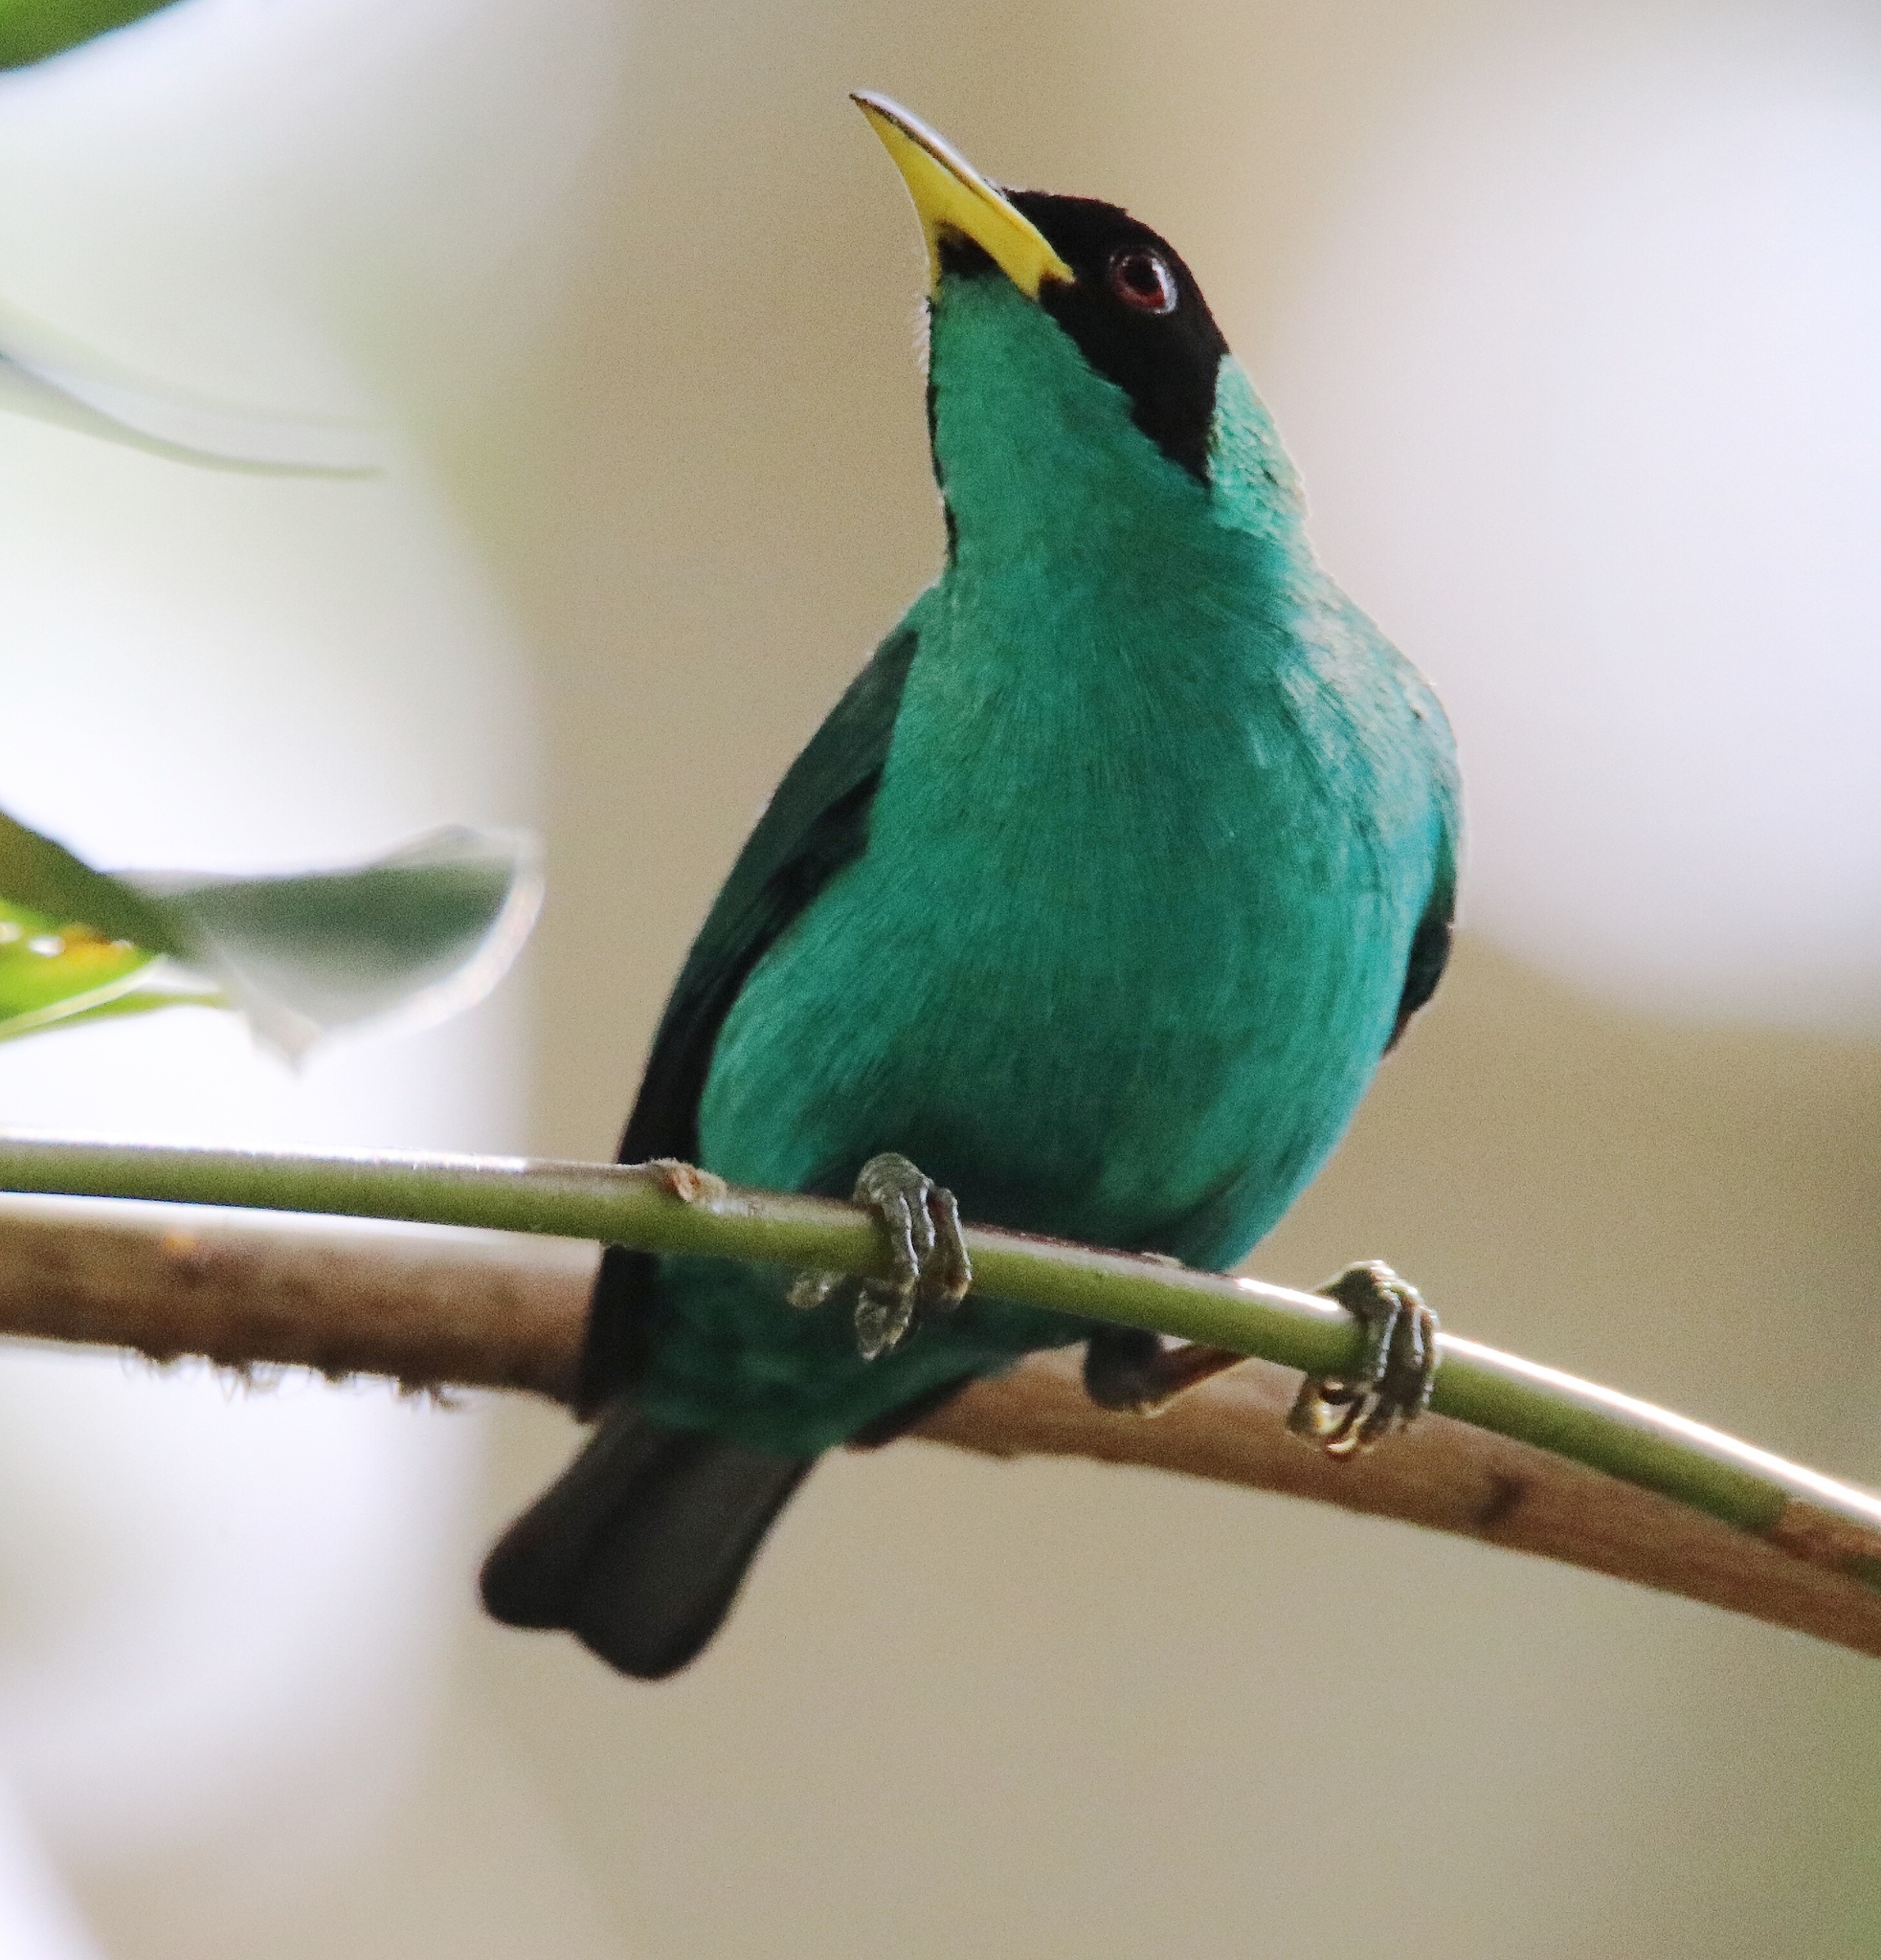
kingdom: Animalia
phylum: Chordata
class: Aves
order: Passeriformes
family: Thraupidae
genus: Chlorophanes
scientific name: Chlorophanes spiza
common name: Green honeycreeper
